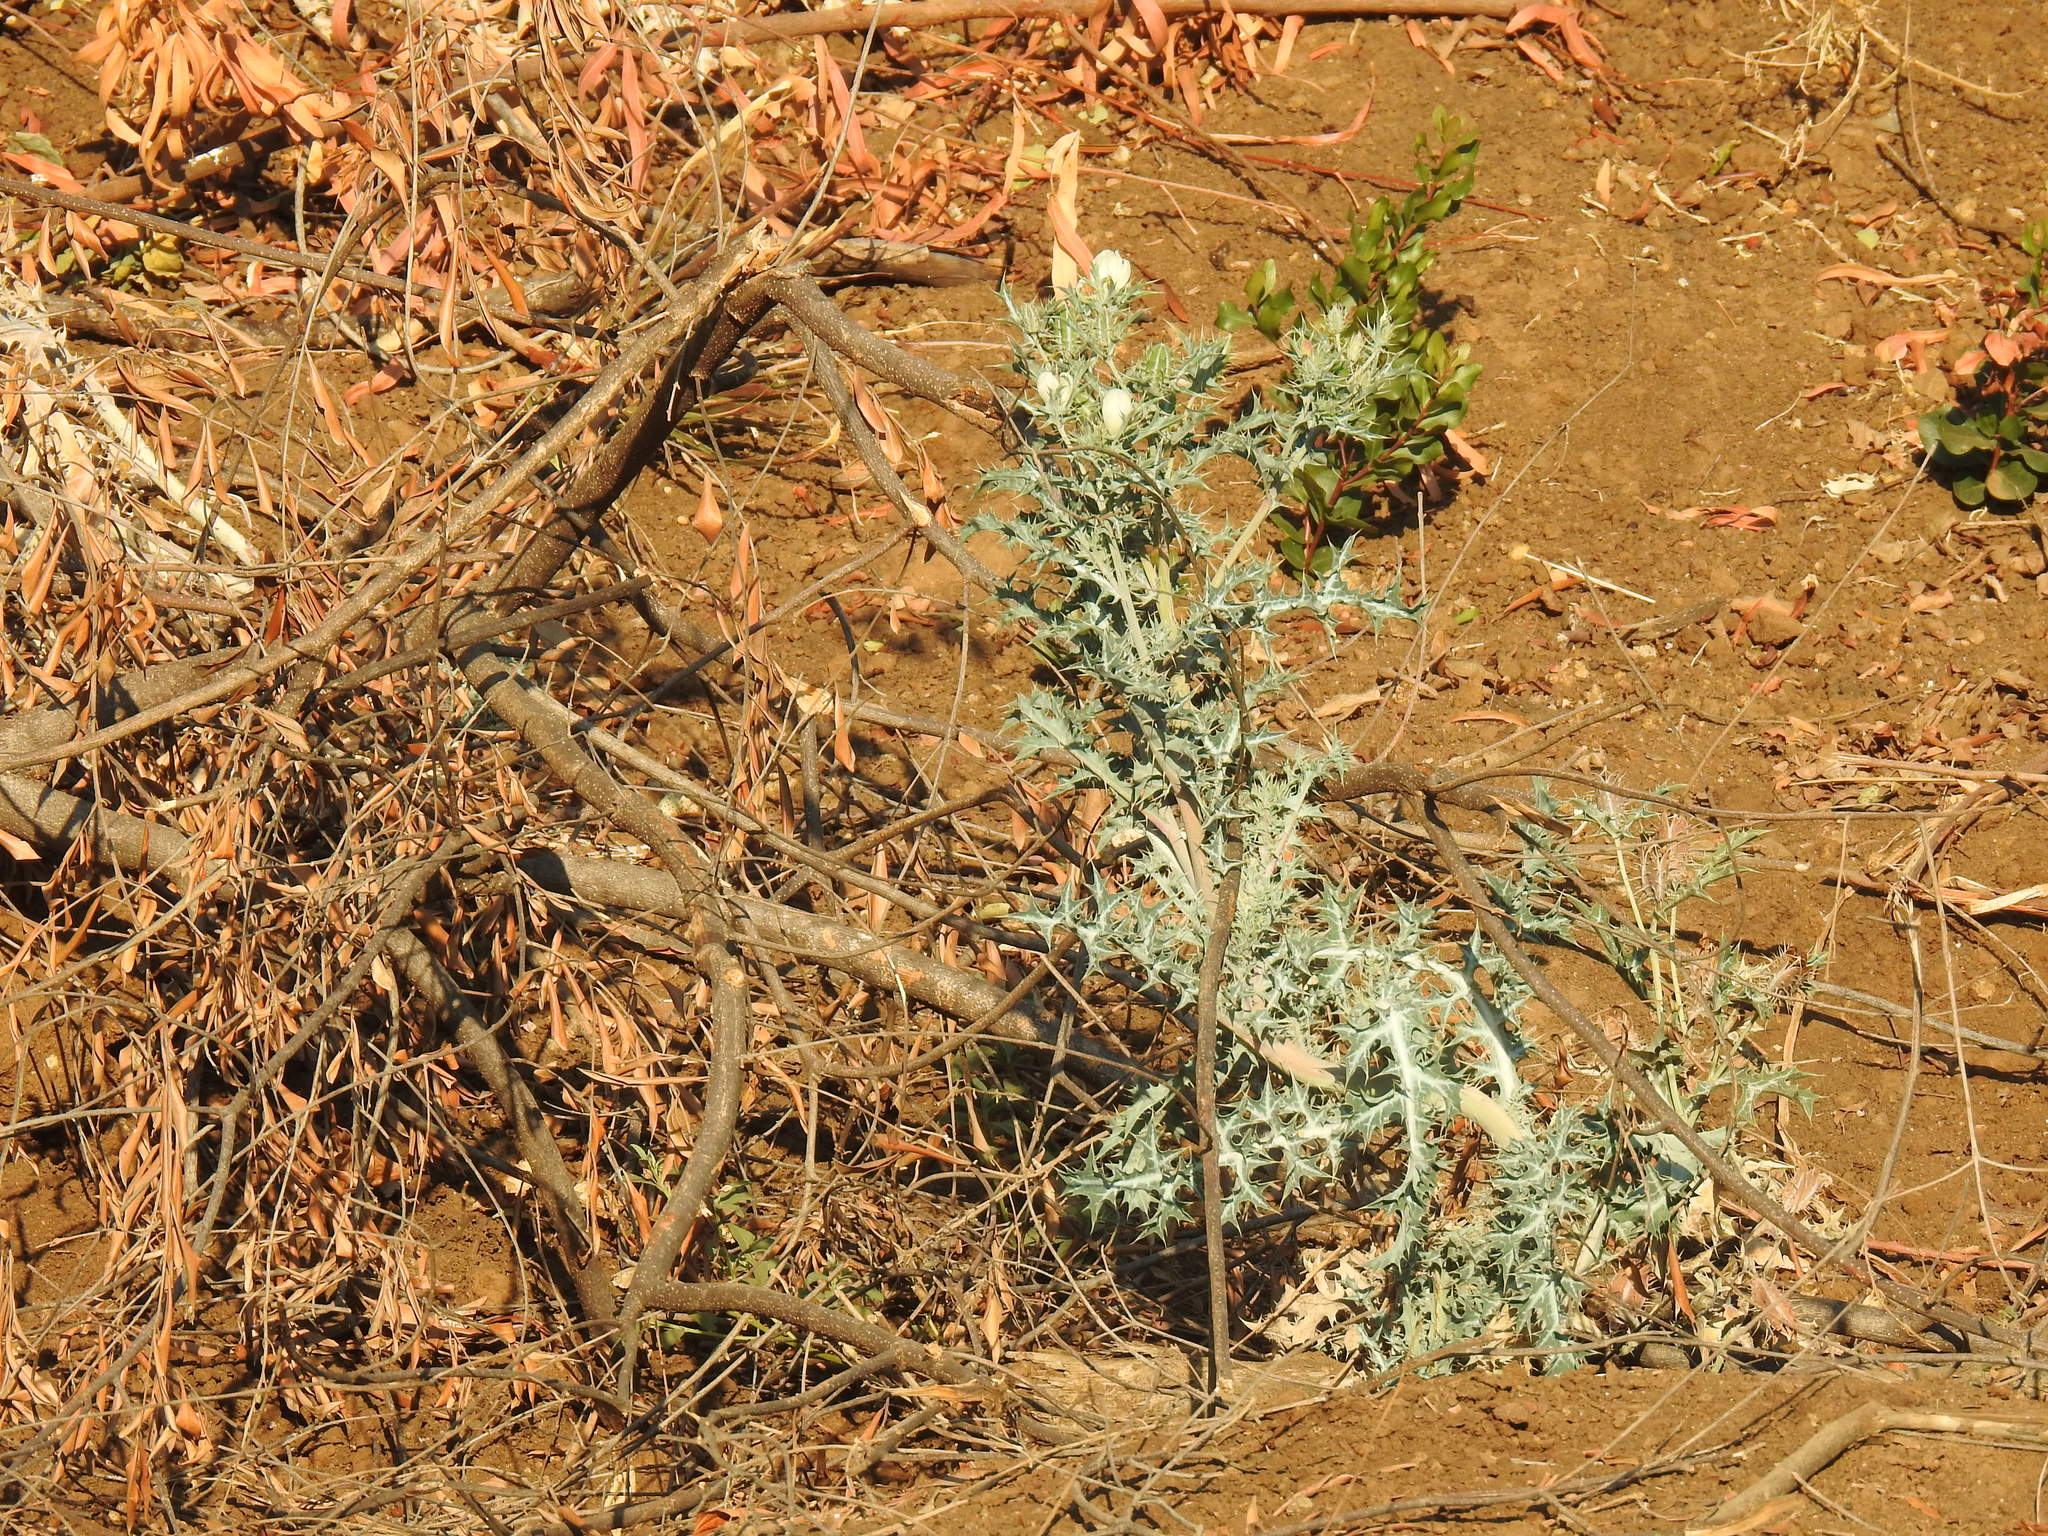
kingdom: Plantae
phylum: Tracheophyta
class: Magnoliopsida
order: Ranunculales
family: Papaveraceae
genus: Argemone
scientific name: Argemone ochroleuca
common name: White-flower mexican-poppy
